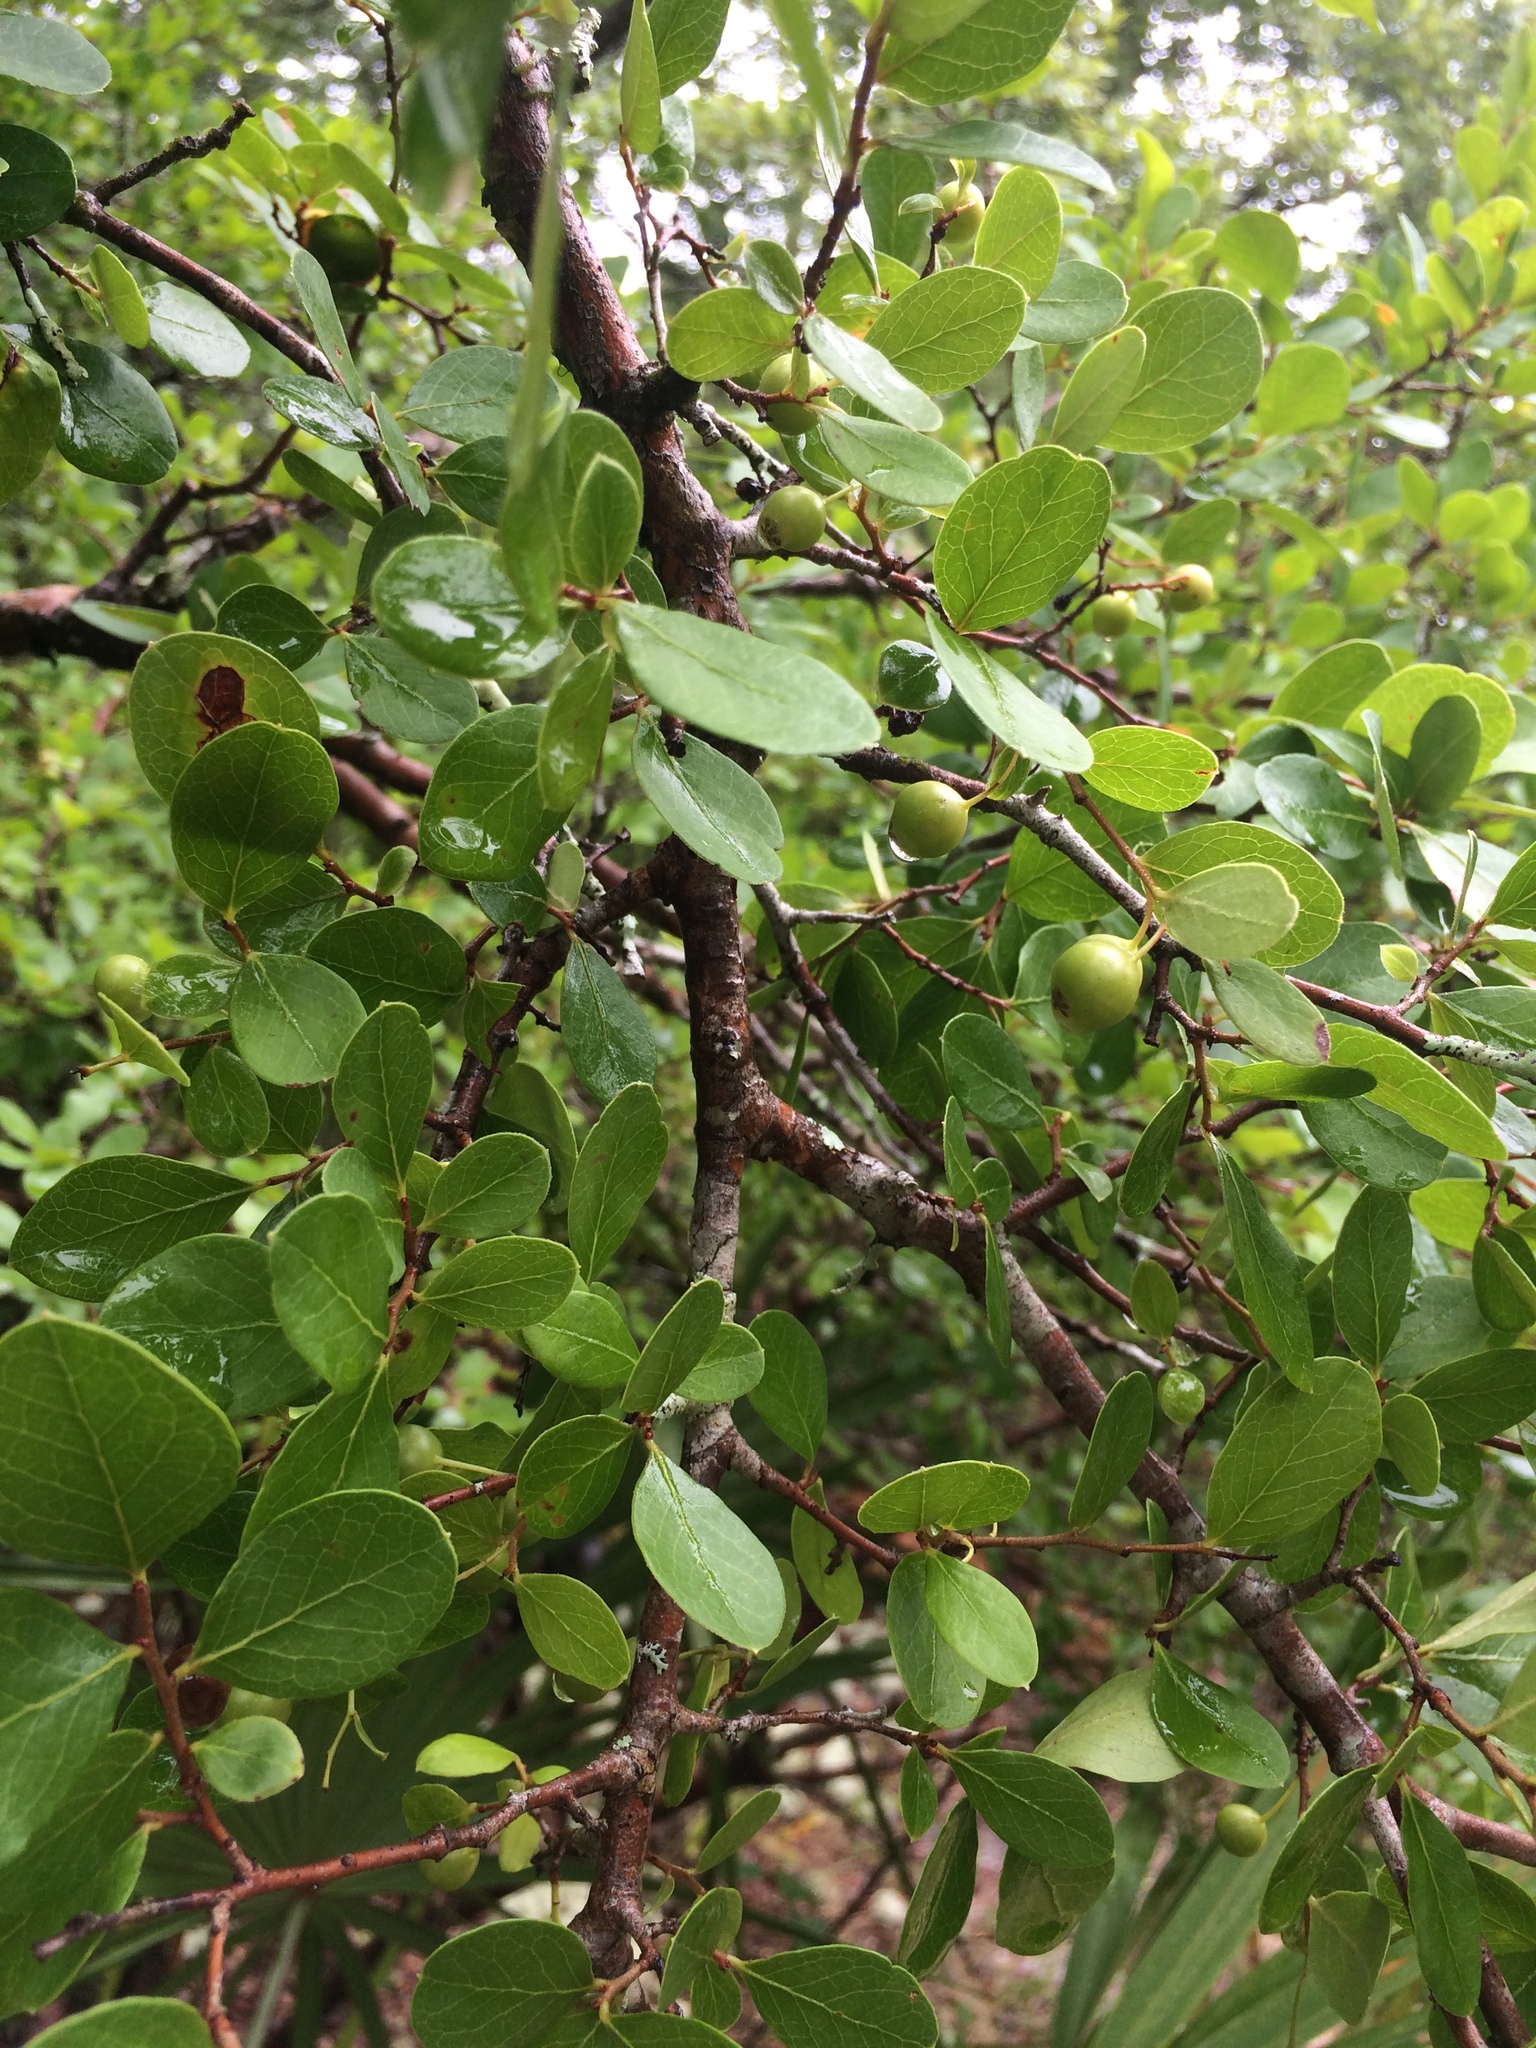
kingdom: Plantae
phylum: Tracheophyta
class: Magnoliopsida
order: Ericales
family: Ericaceae
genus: Vaccinium
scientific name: Vaccinium arboreum
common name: Farkleberry
